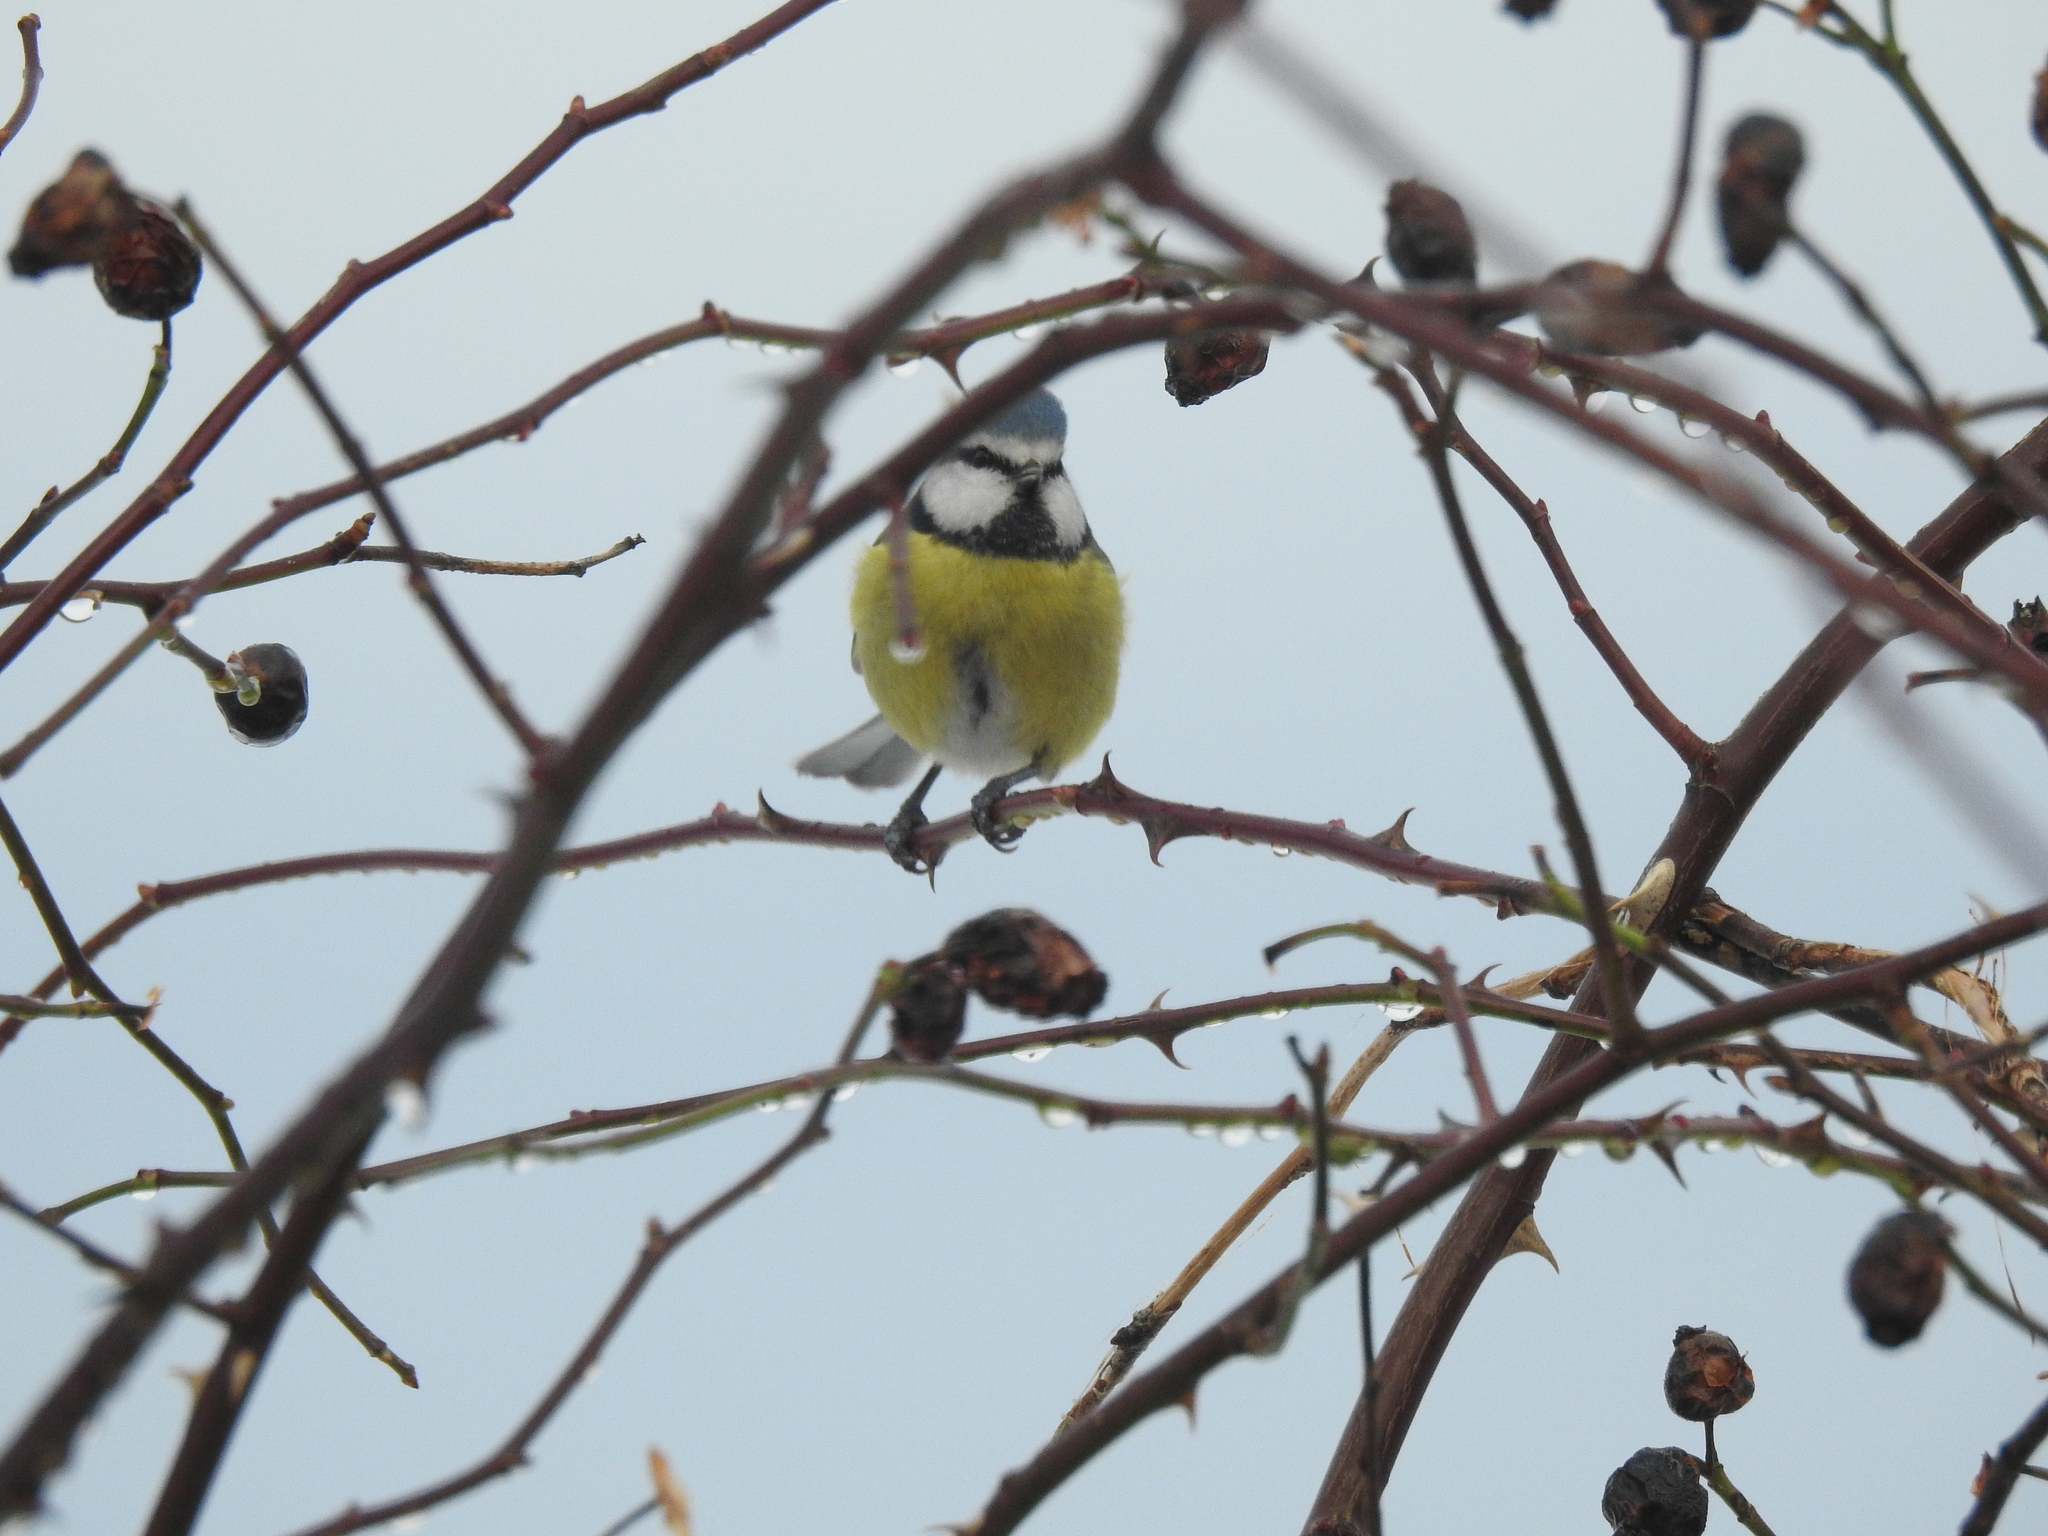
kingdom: Animalia
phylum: Chordata
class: Aves
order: Passeriformes
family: Paridae
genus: Cyanistes
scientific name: Cyanistes caeruleus
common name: Eurasian blue tit
